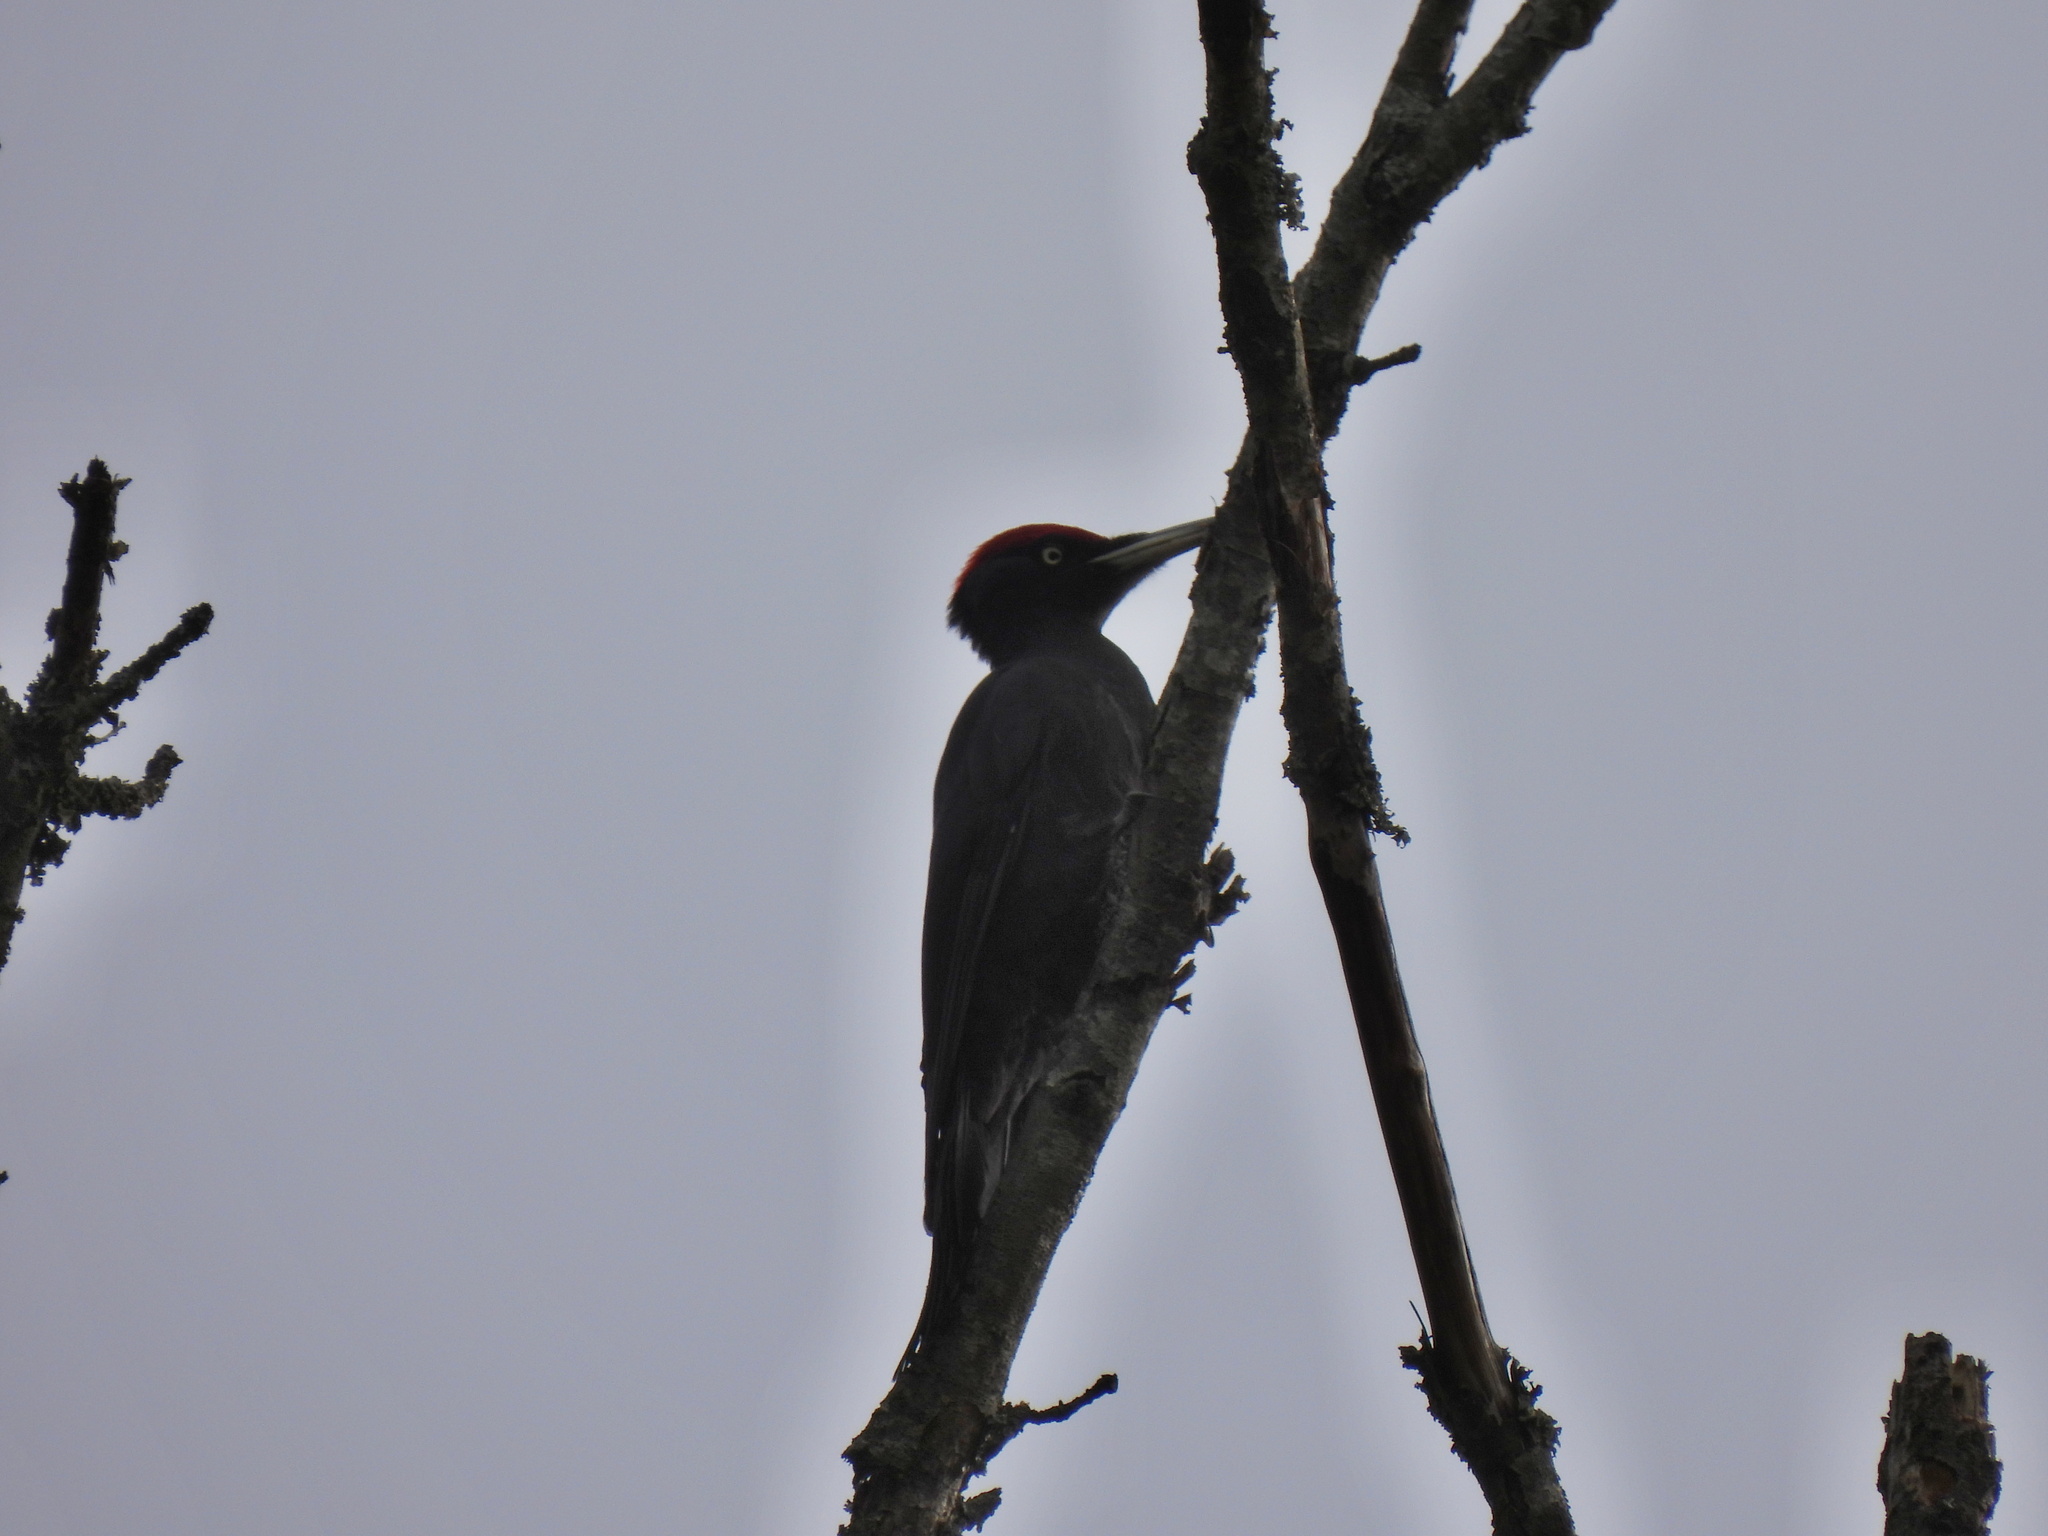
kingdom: Animalia
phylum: Chordata
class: Aves
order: Piciformes
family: Picidae
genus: Dryocopus
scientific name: Dryocopus martius
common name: Black woodpecker
